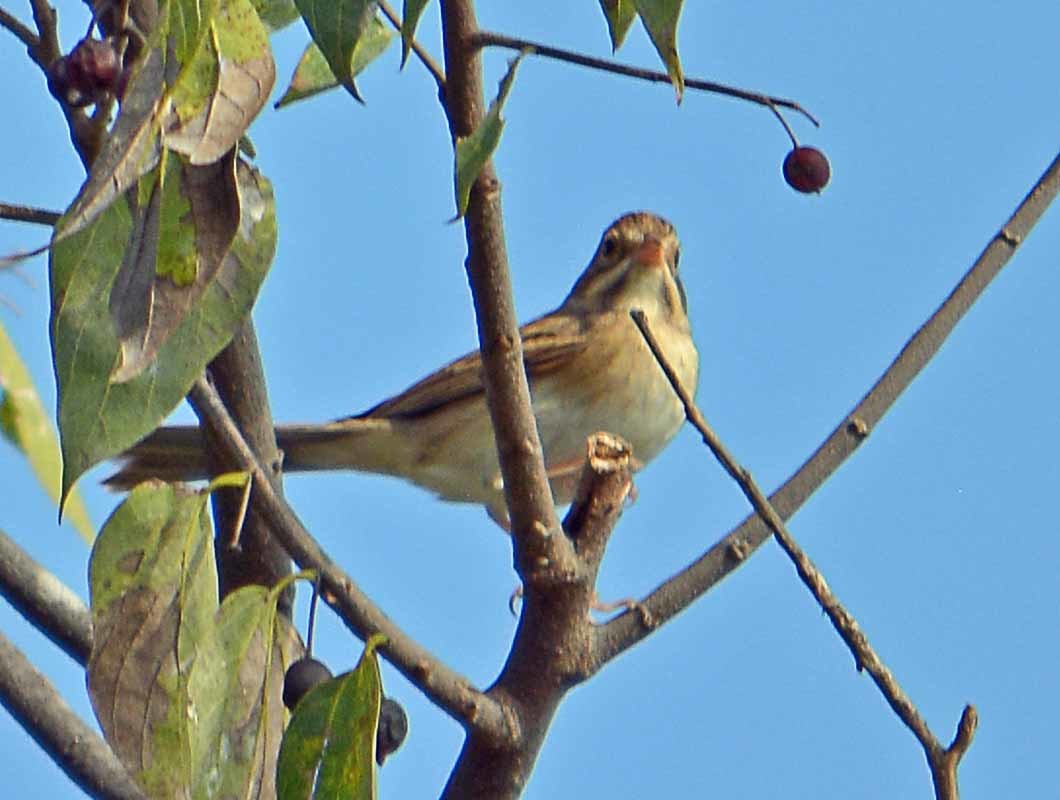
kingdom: Animalia
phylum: Chordata
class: Aves
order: Passeriformes
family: Passerellidae
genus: Spizella
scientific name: Spizella pallida
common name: Clay-colored sparrow
